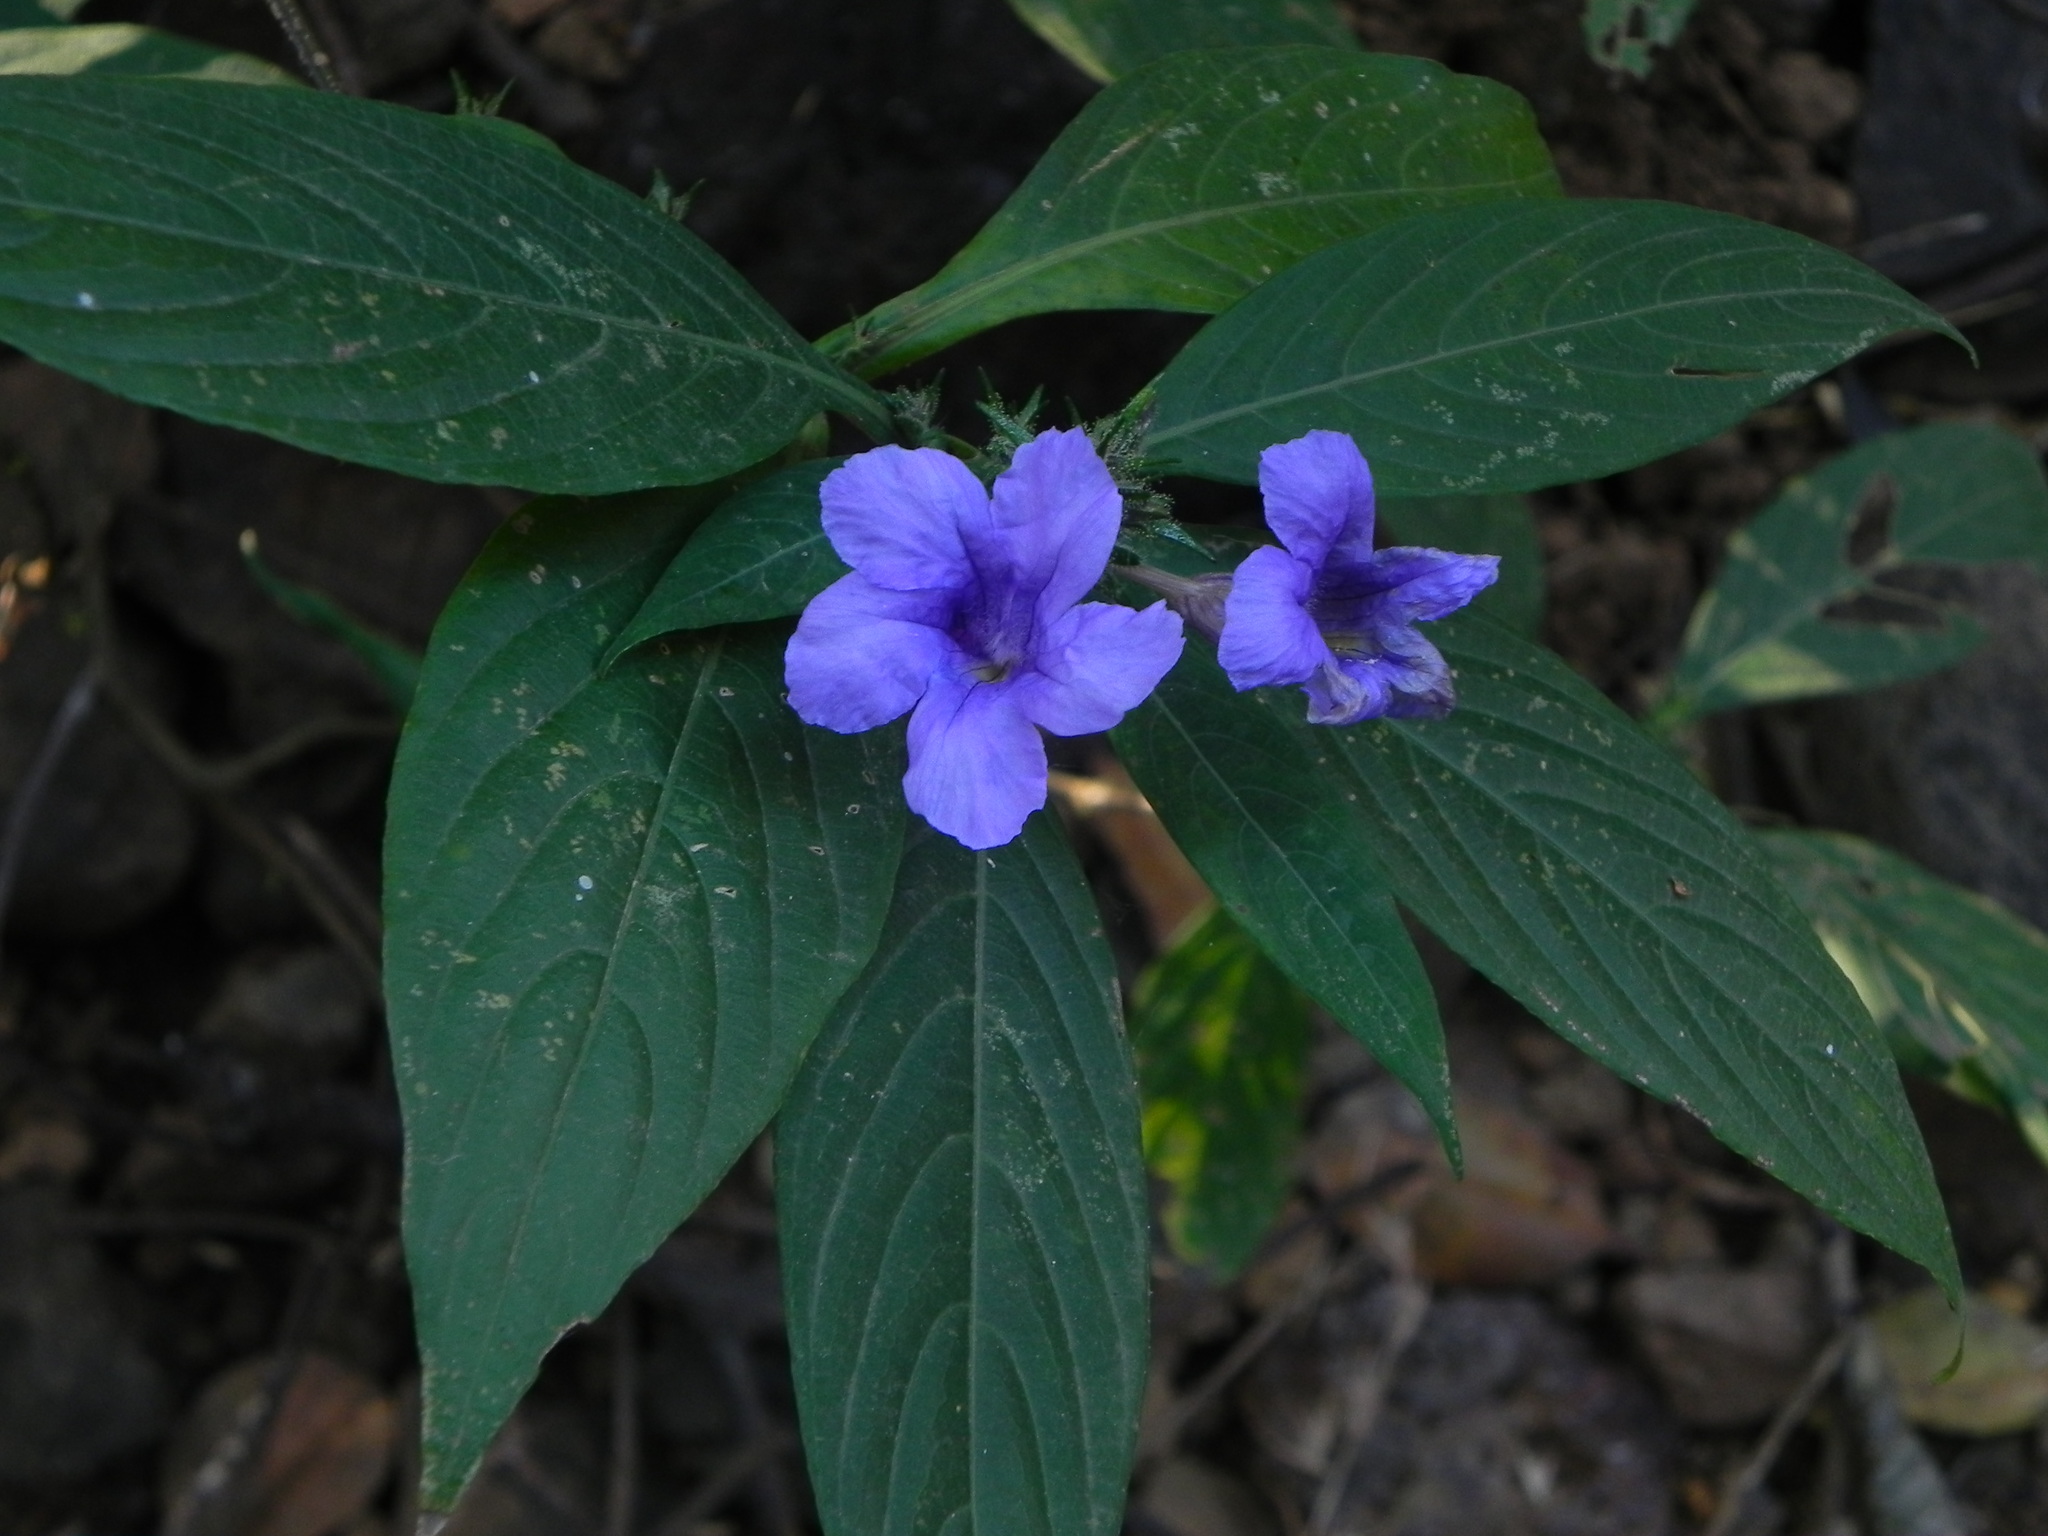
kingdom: Plantae
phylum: Tracheophyta
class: Magnoliopsida
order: Lamiales
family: Acanthaceae
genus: Strobilanthes
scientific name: Strobilanthes integrifolia
